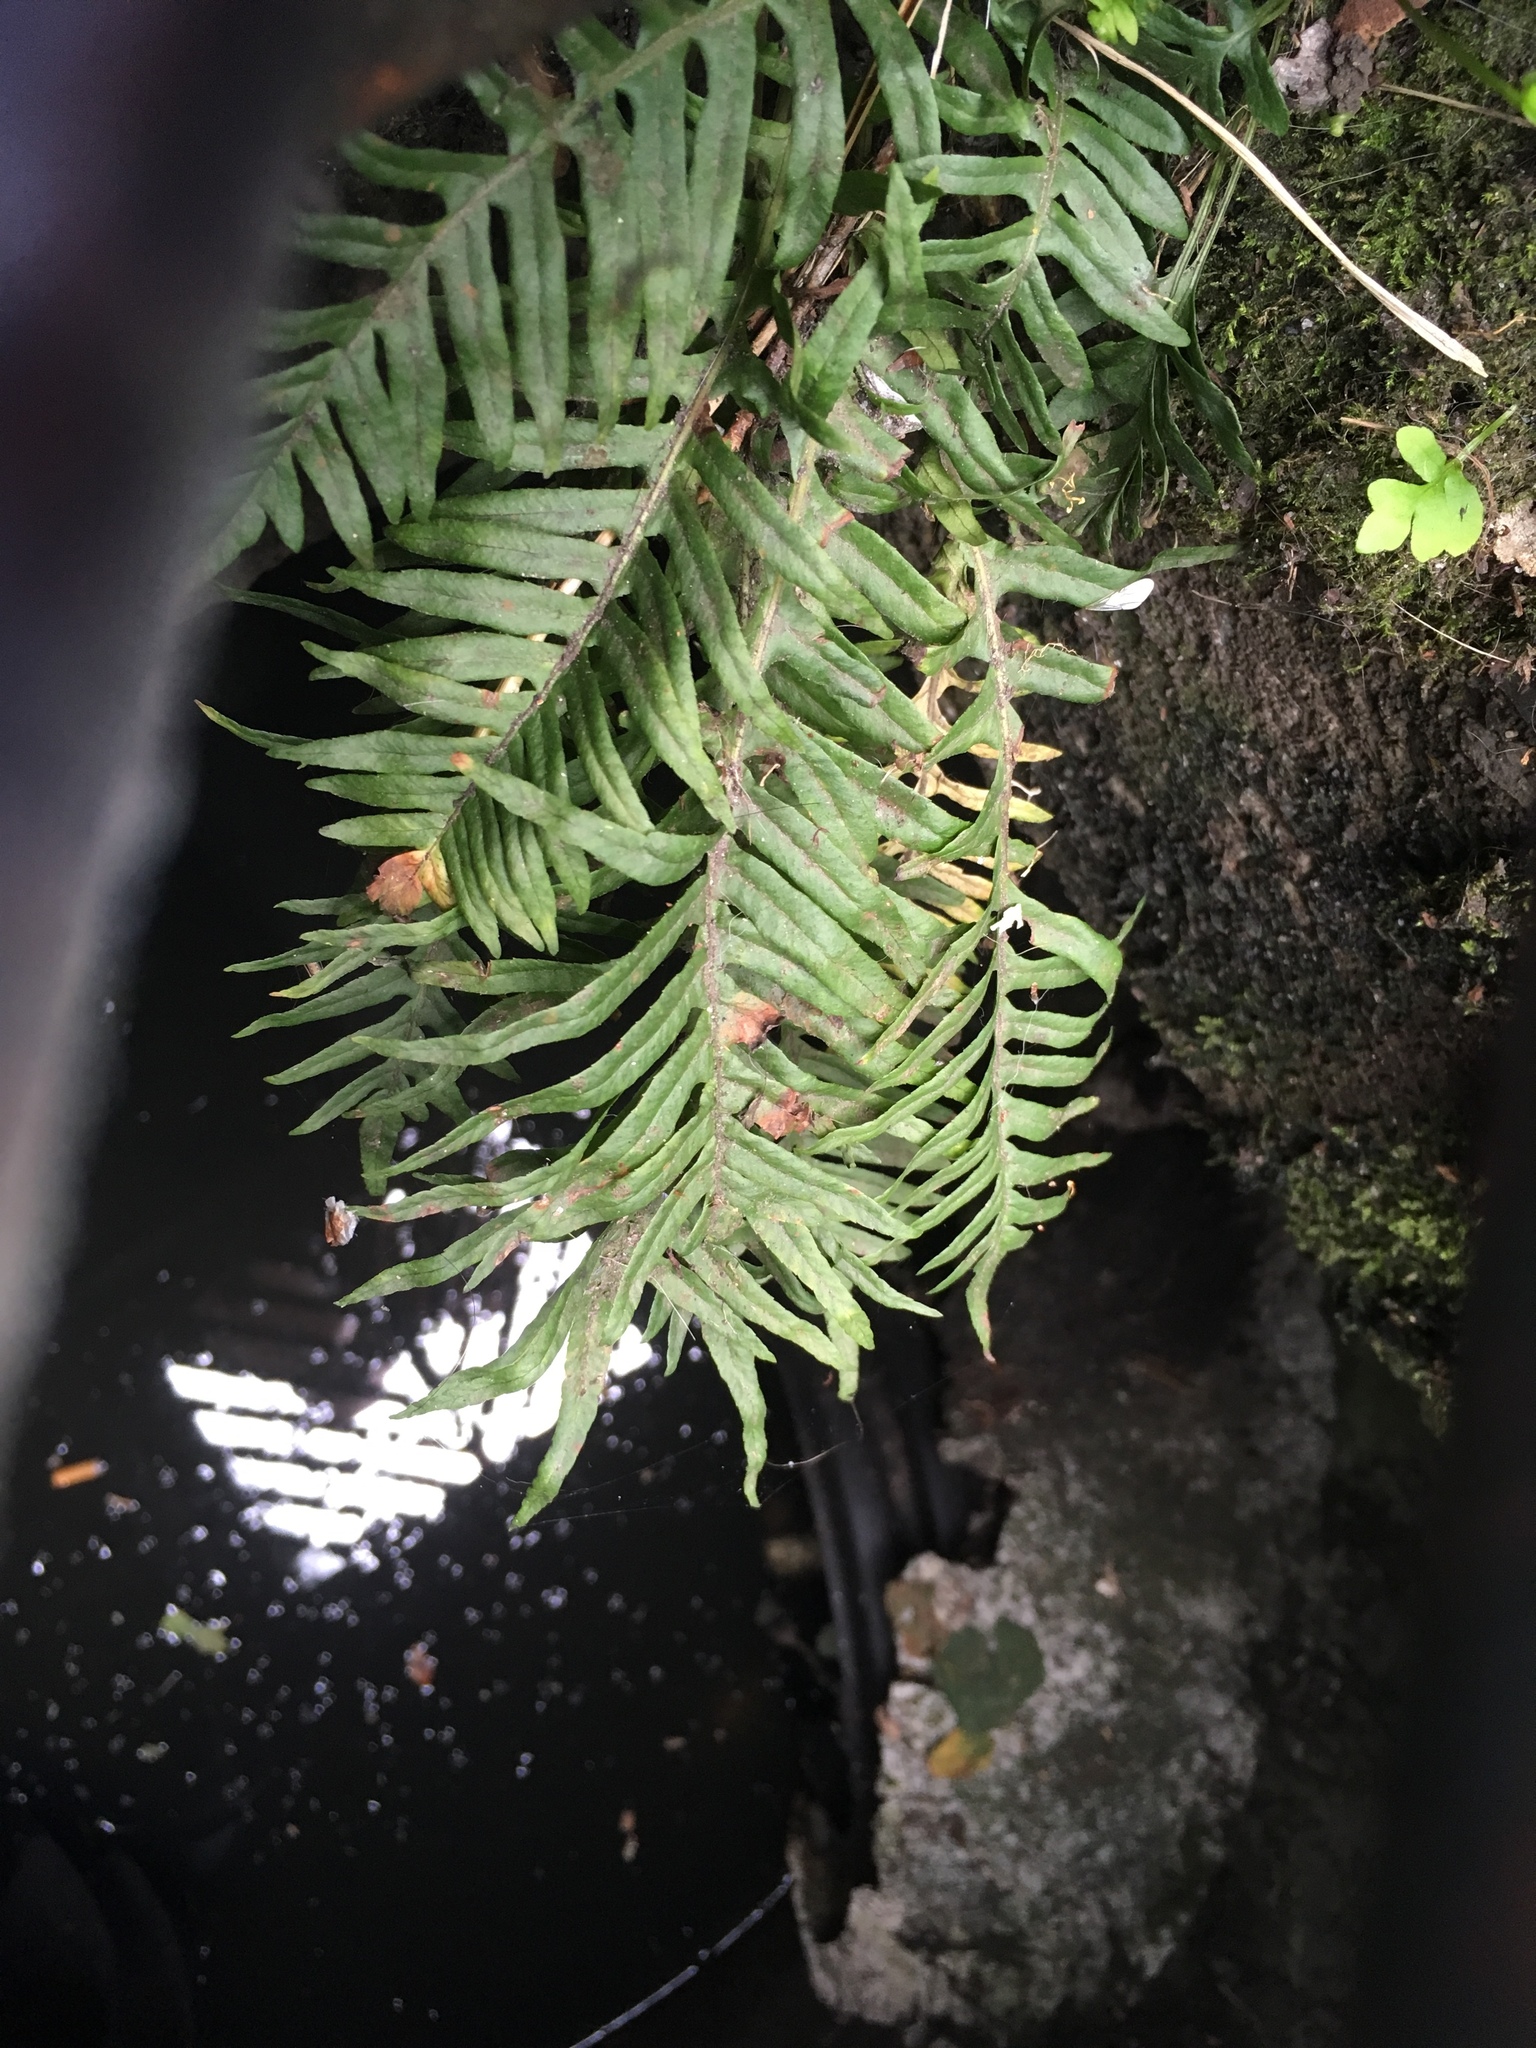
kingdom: Plantae
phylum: Tracheophyta
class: Polypodiopsida
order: Polypodiales
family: Polypodiaceae
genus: Polypodium
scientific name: Polypodium glycyrrhiza
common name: Licorice fern
